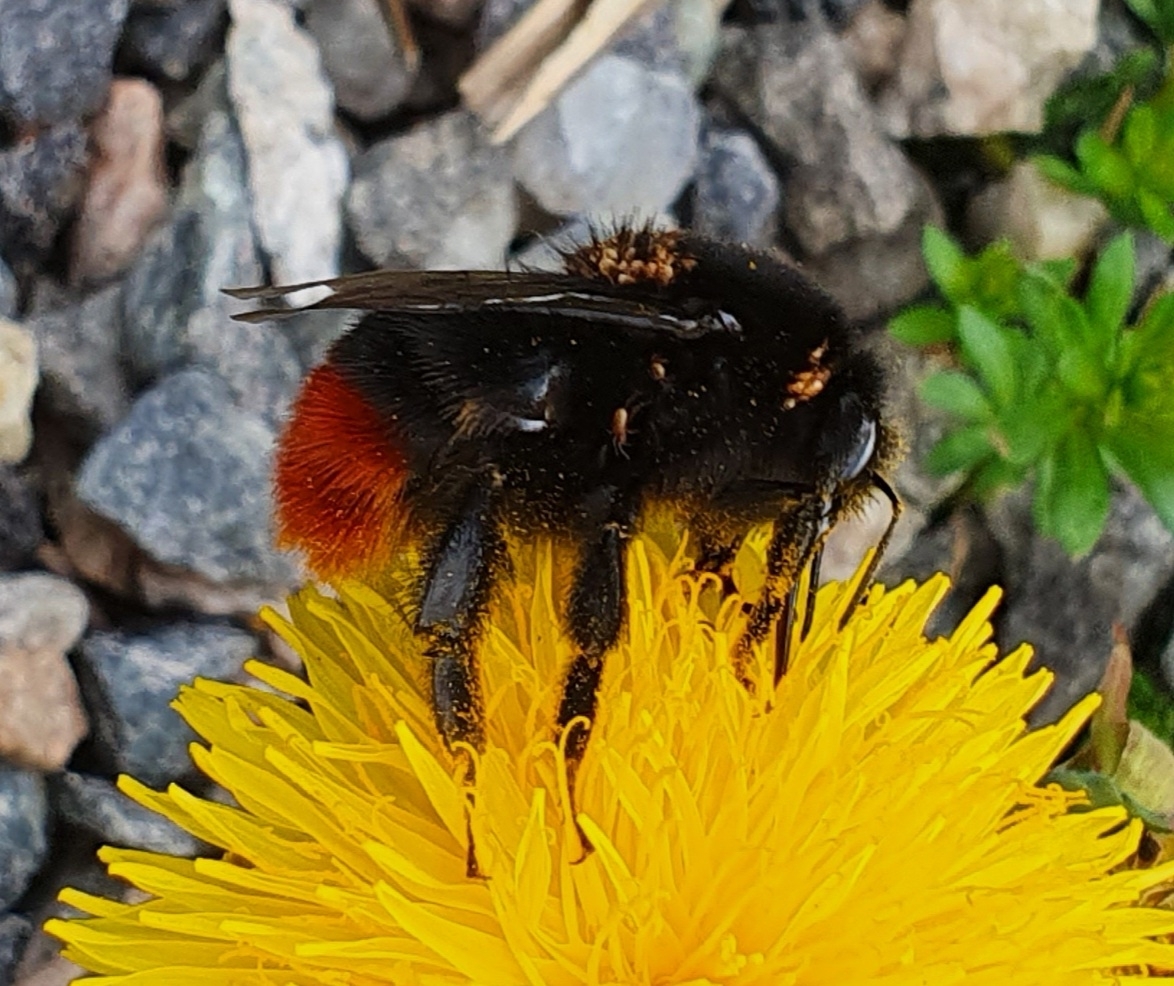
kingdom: Animalia
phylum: Arthropoda
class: Insecta
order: Hymenoptera
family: Apidae
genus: Bombus
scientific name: Bombus lapidarius
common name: Large red-tailed humble-bee
